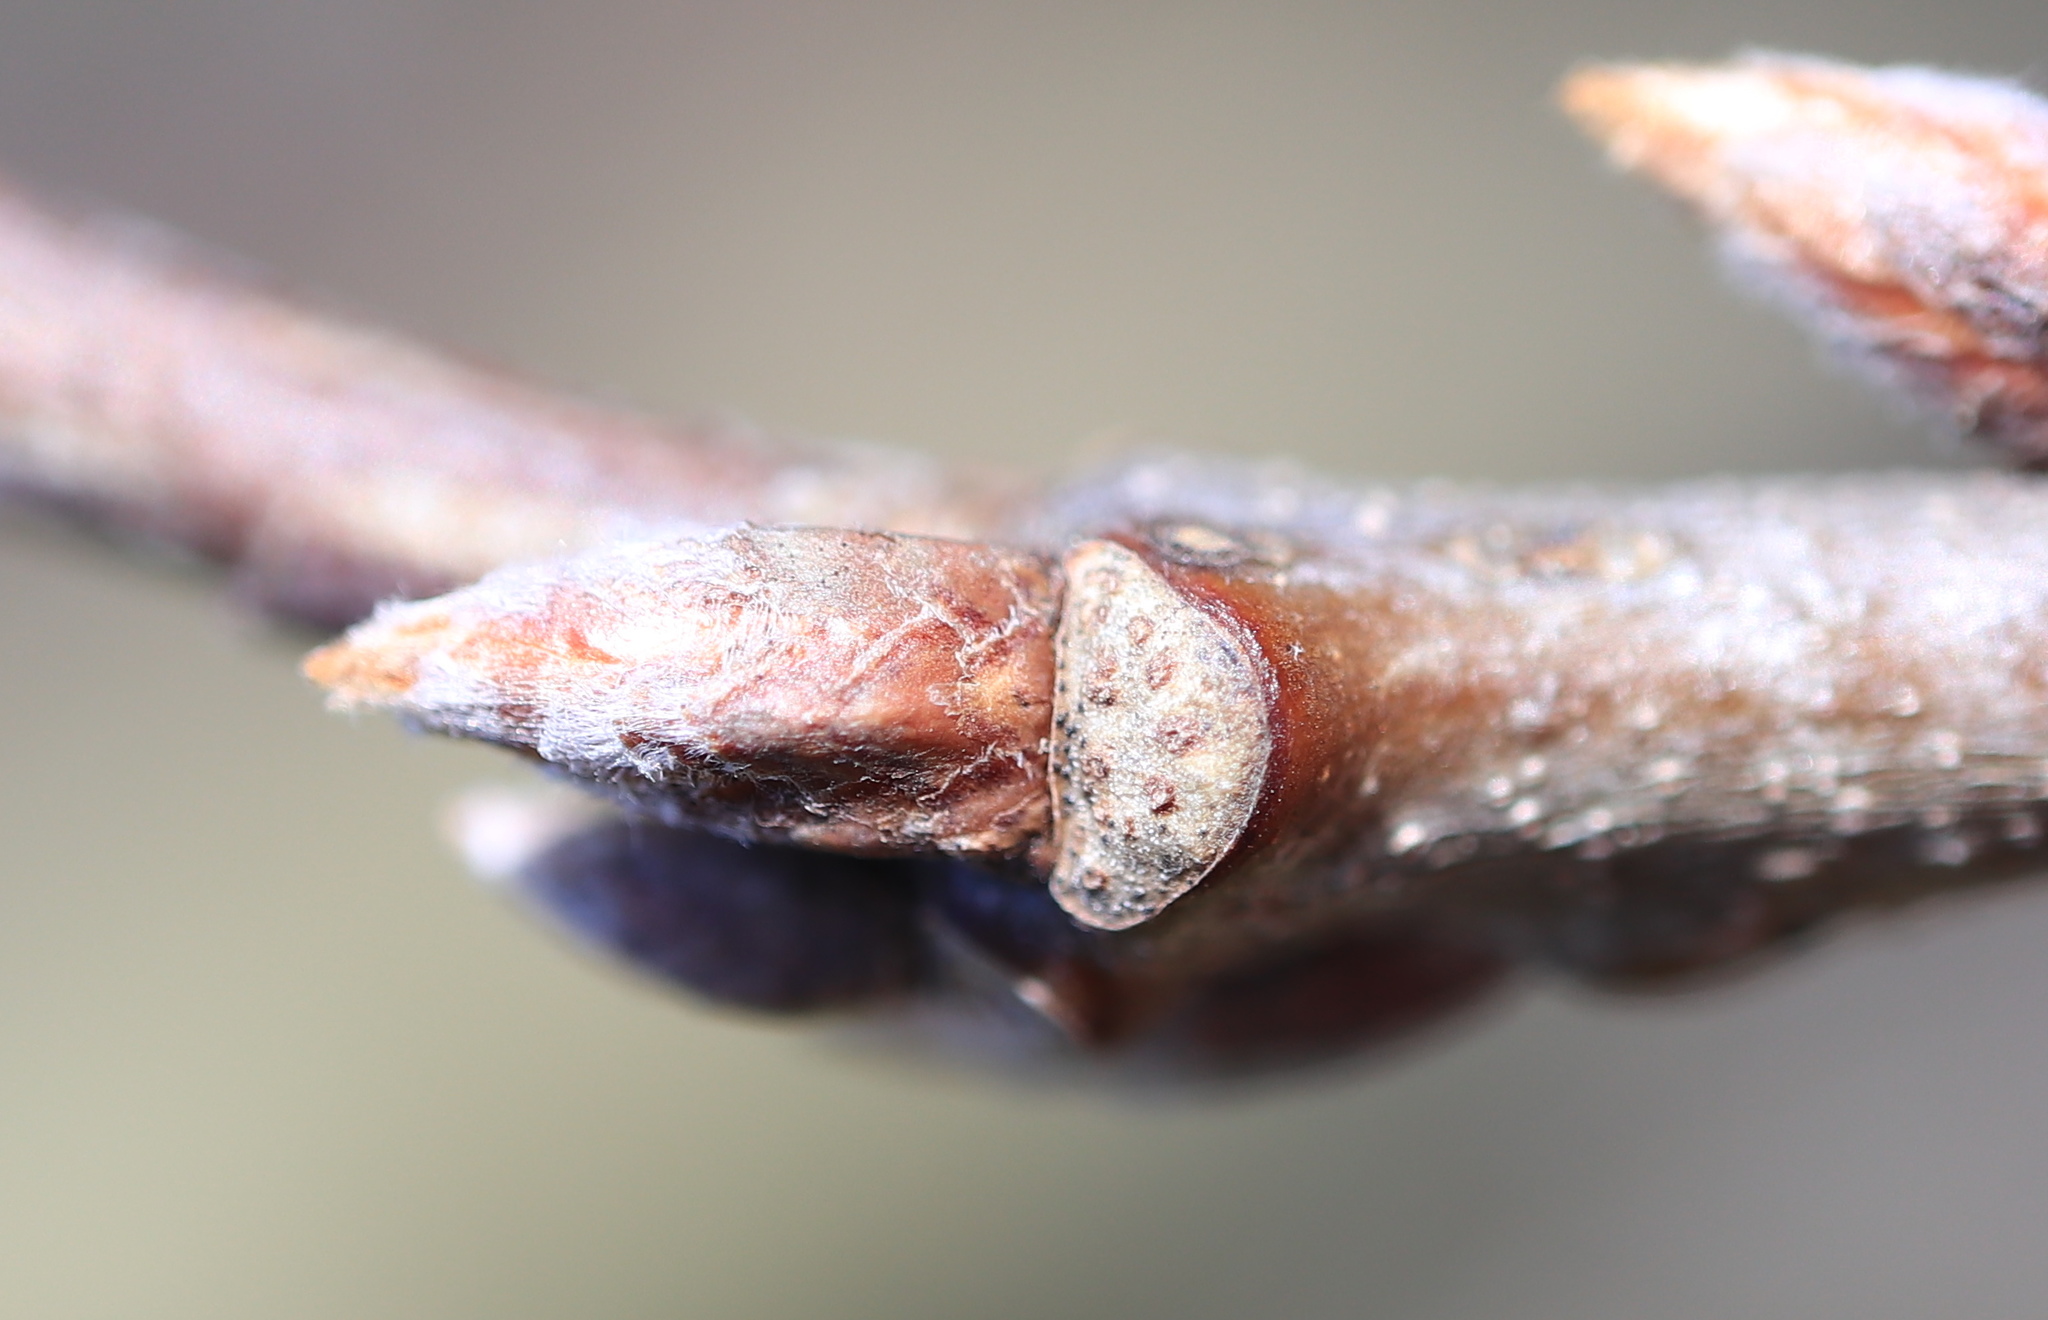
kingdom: Plantae
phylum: Tracheophyta
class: Magnoliopsida
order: Fagales
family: Fagaceae
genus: Quercus
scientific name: Quercus leana
